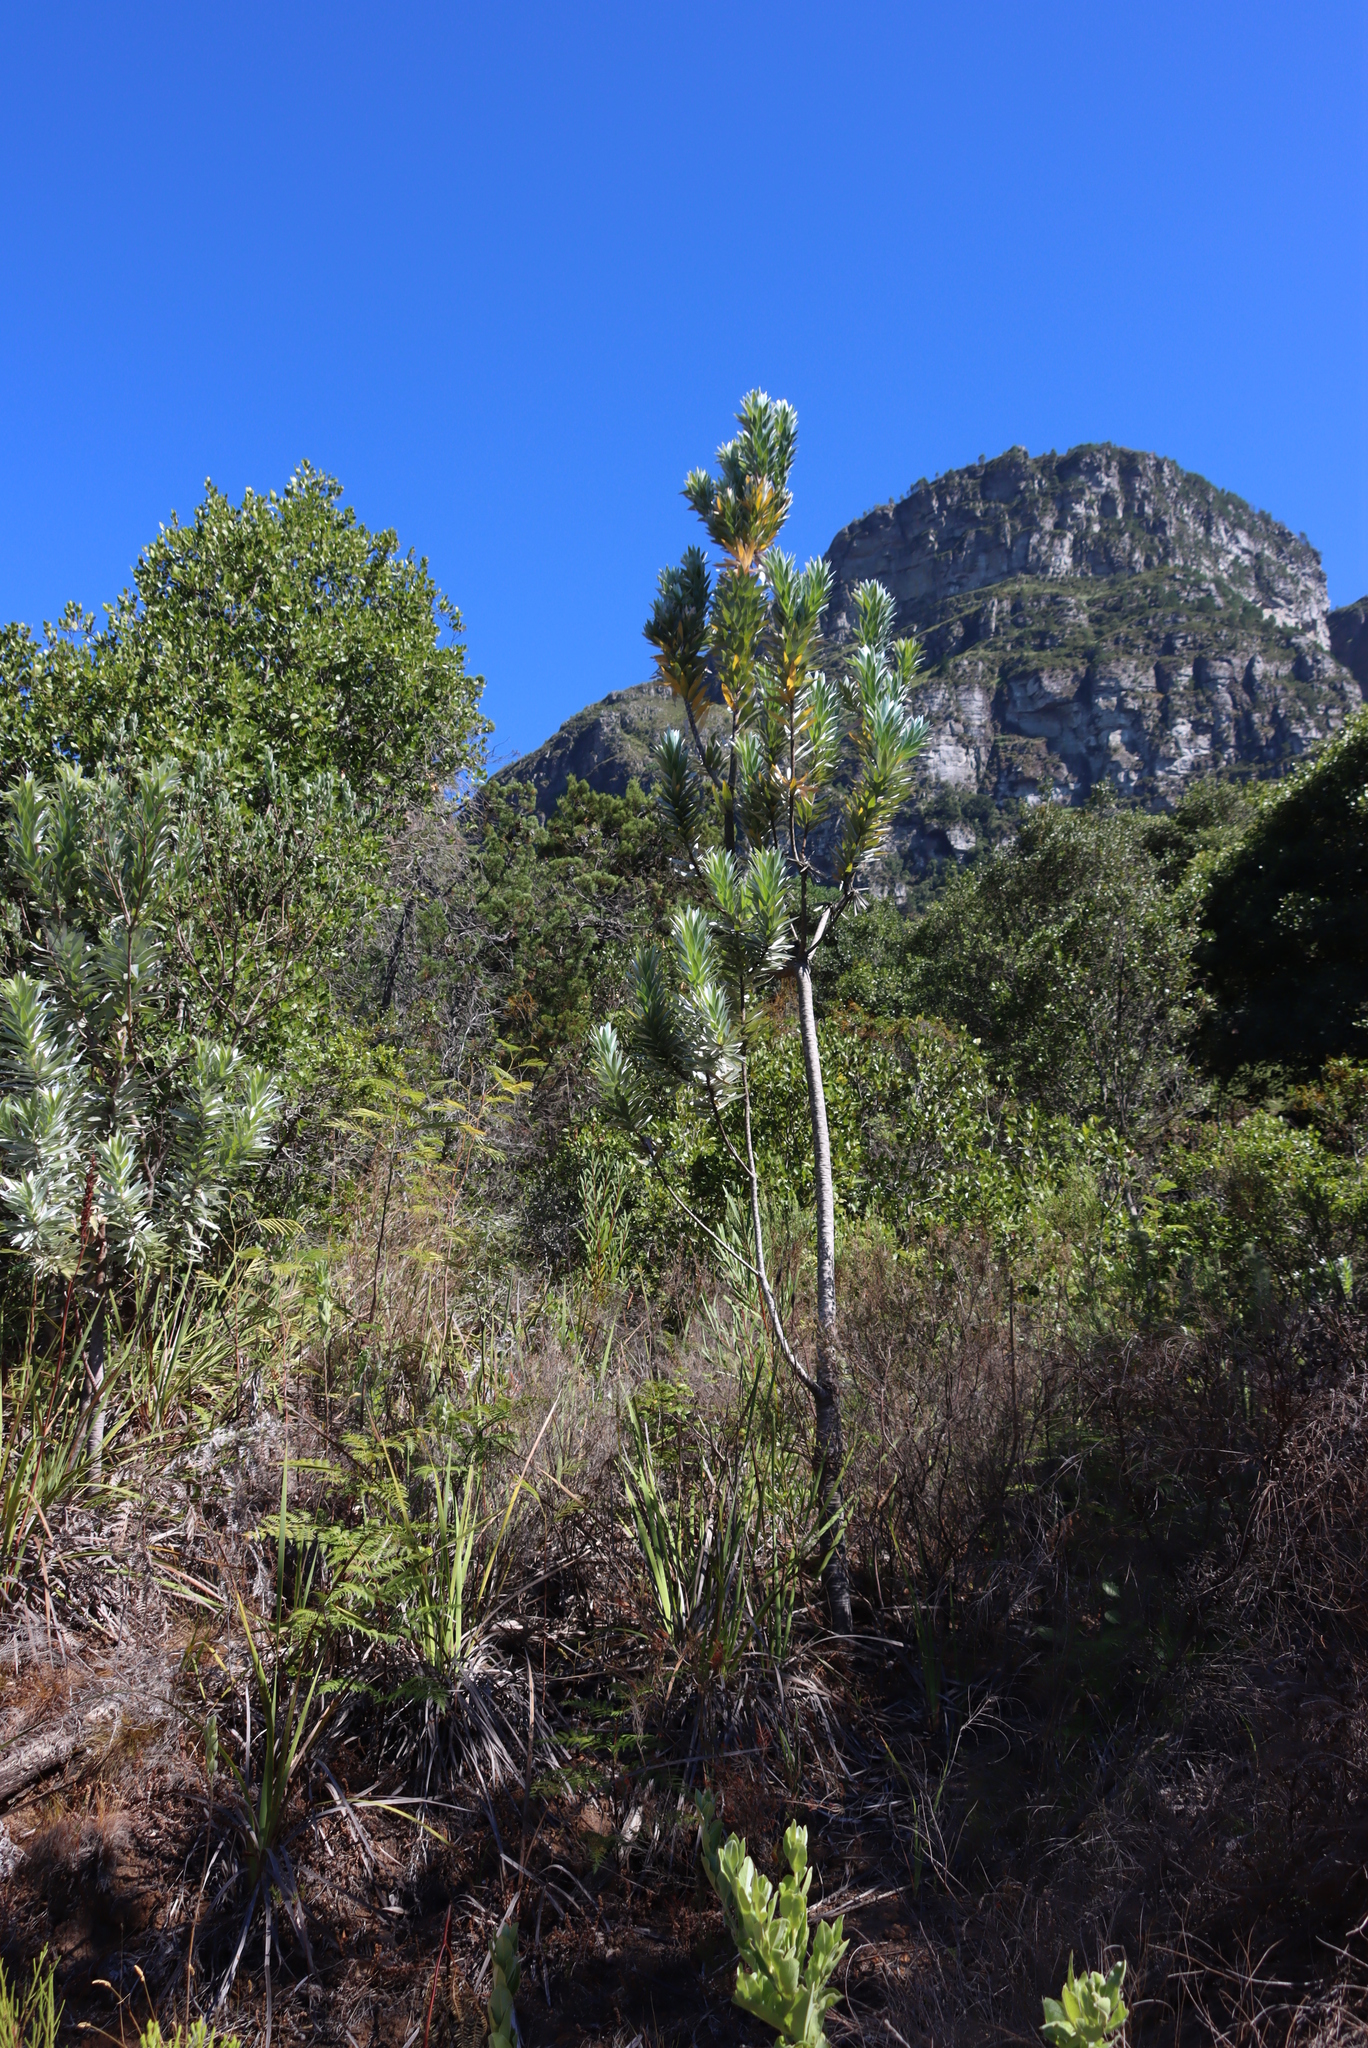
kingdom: Plantae
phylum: Tracheophyta
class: Magnoliopsida
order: Proteales
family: Proteaceae
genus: Leucadendron
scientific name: Leucadendron argenteum
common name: Cape silver tree
